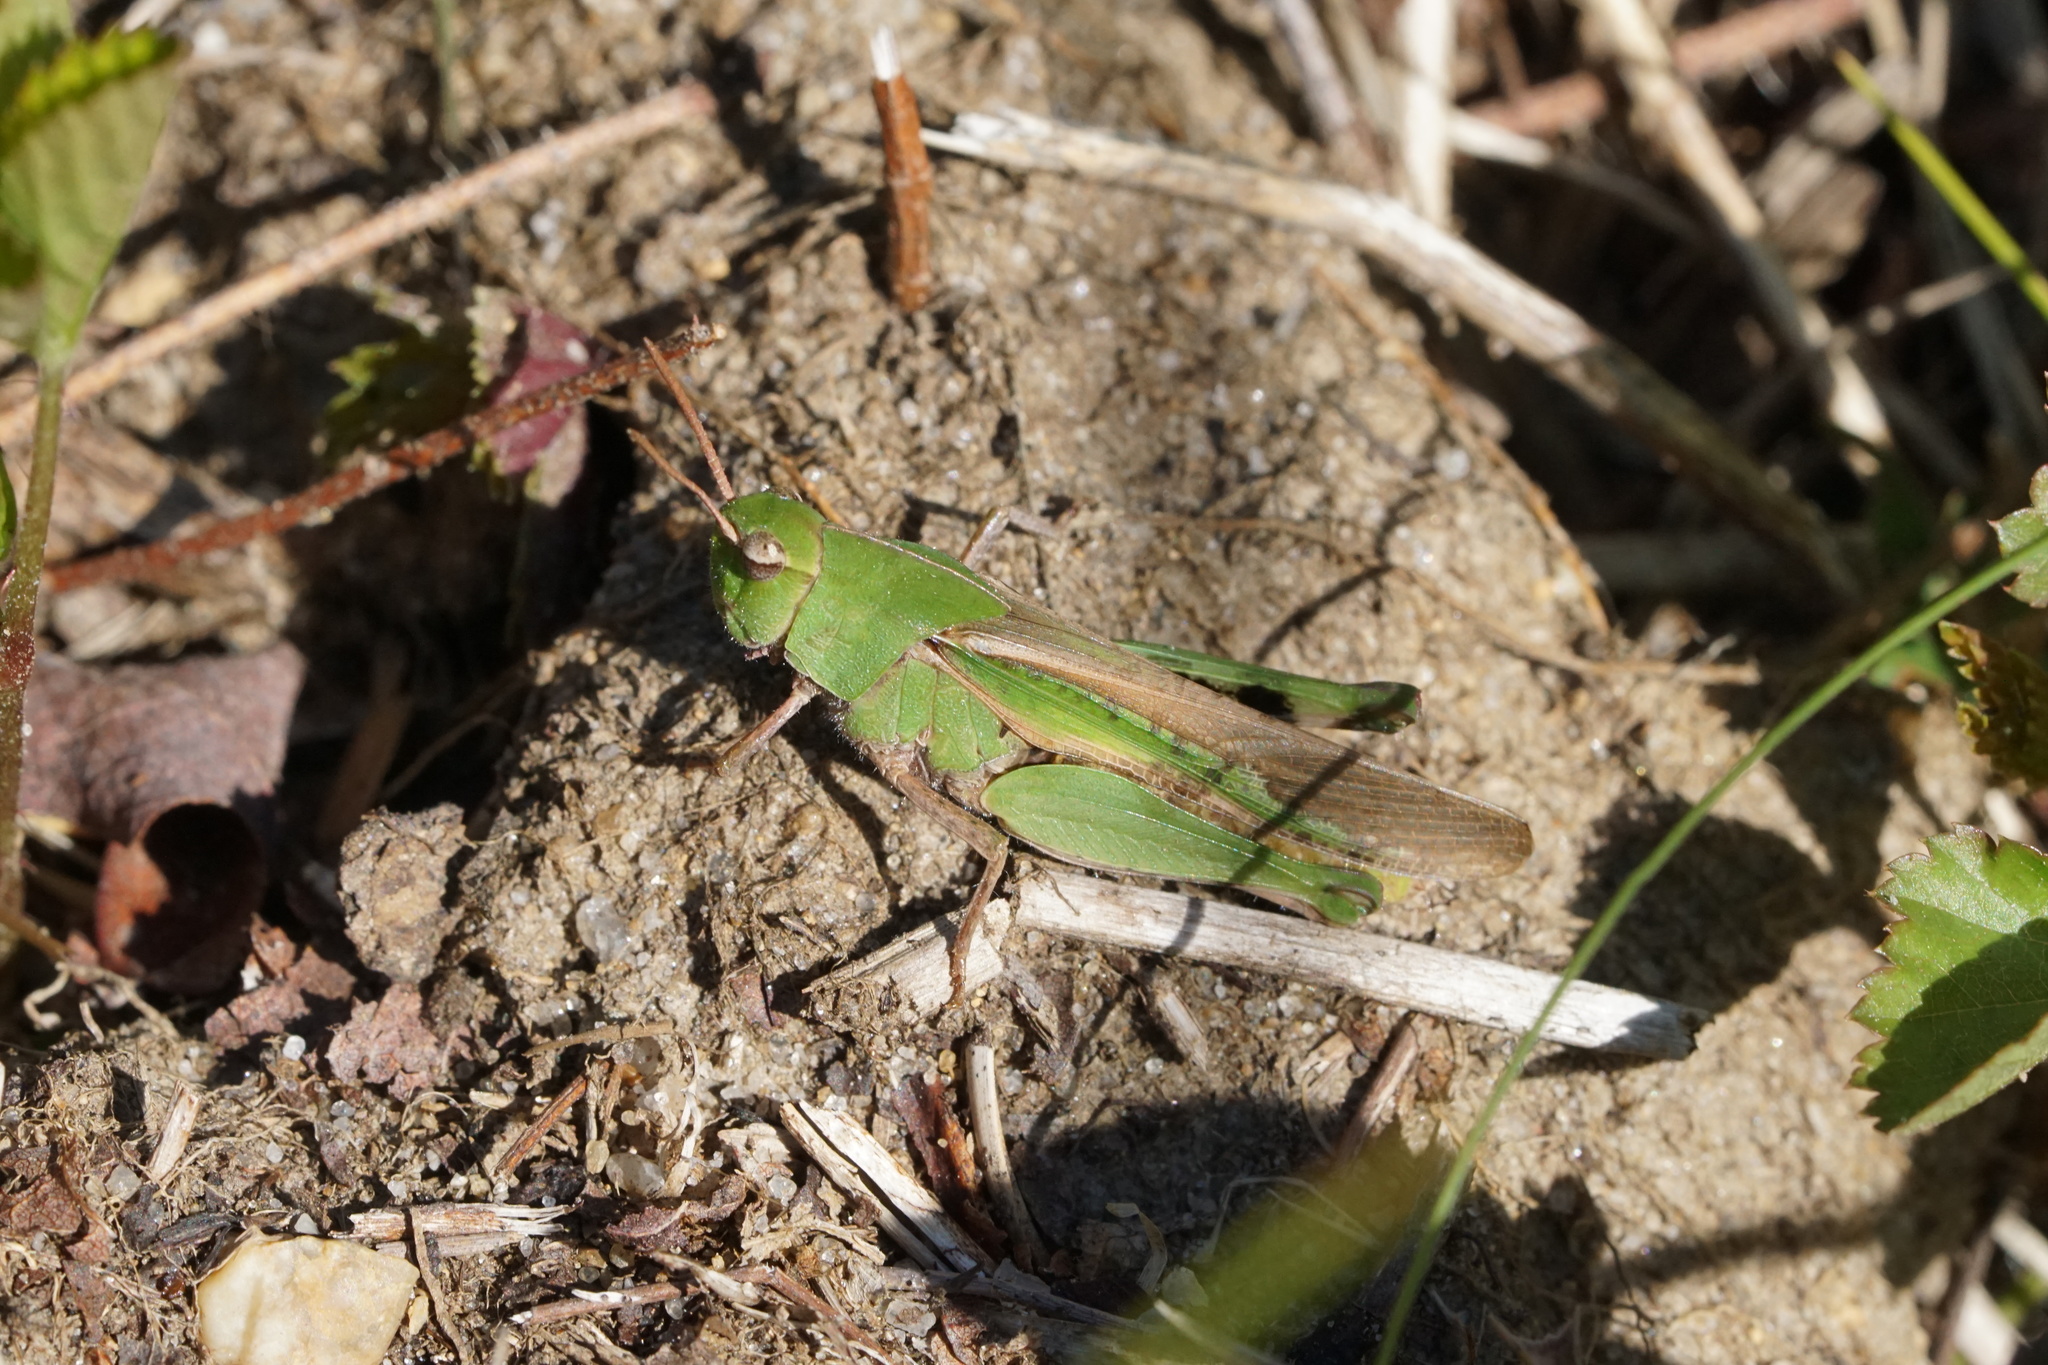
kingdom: Animalia
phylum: Arthropoda
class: Insecta
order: Orthoptera
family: Acrididae
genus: Chortophaga
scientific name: Chortophaga viridifasciata
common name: Green-striped grasshopper
